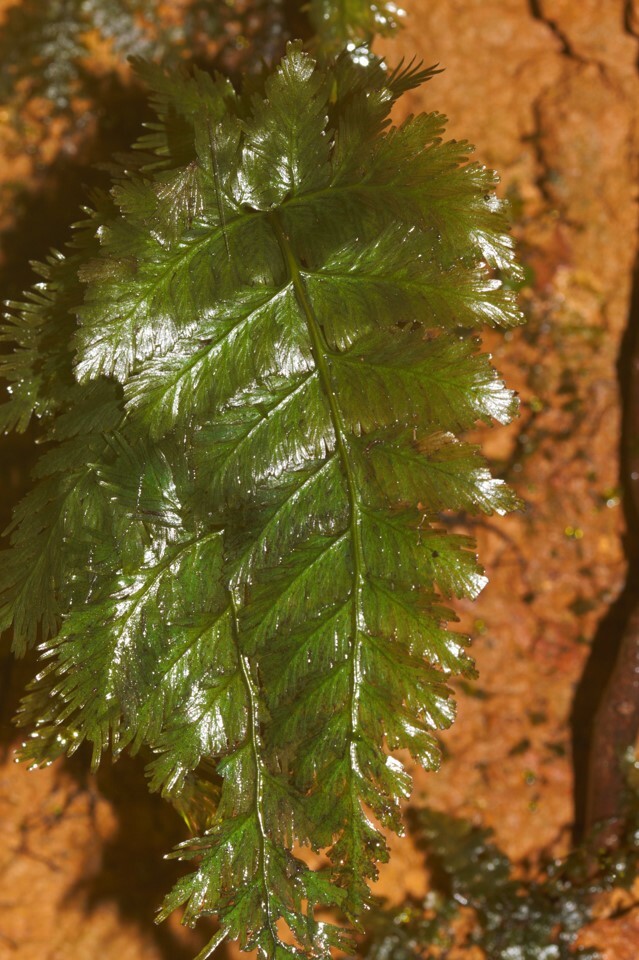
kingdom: Plantae
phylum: Tracheophyta
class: Polypodiopsida
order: Hymenophyllales
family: Hymenophyllaceae
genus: Trichomanes
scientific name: Trichomanes elegans
